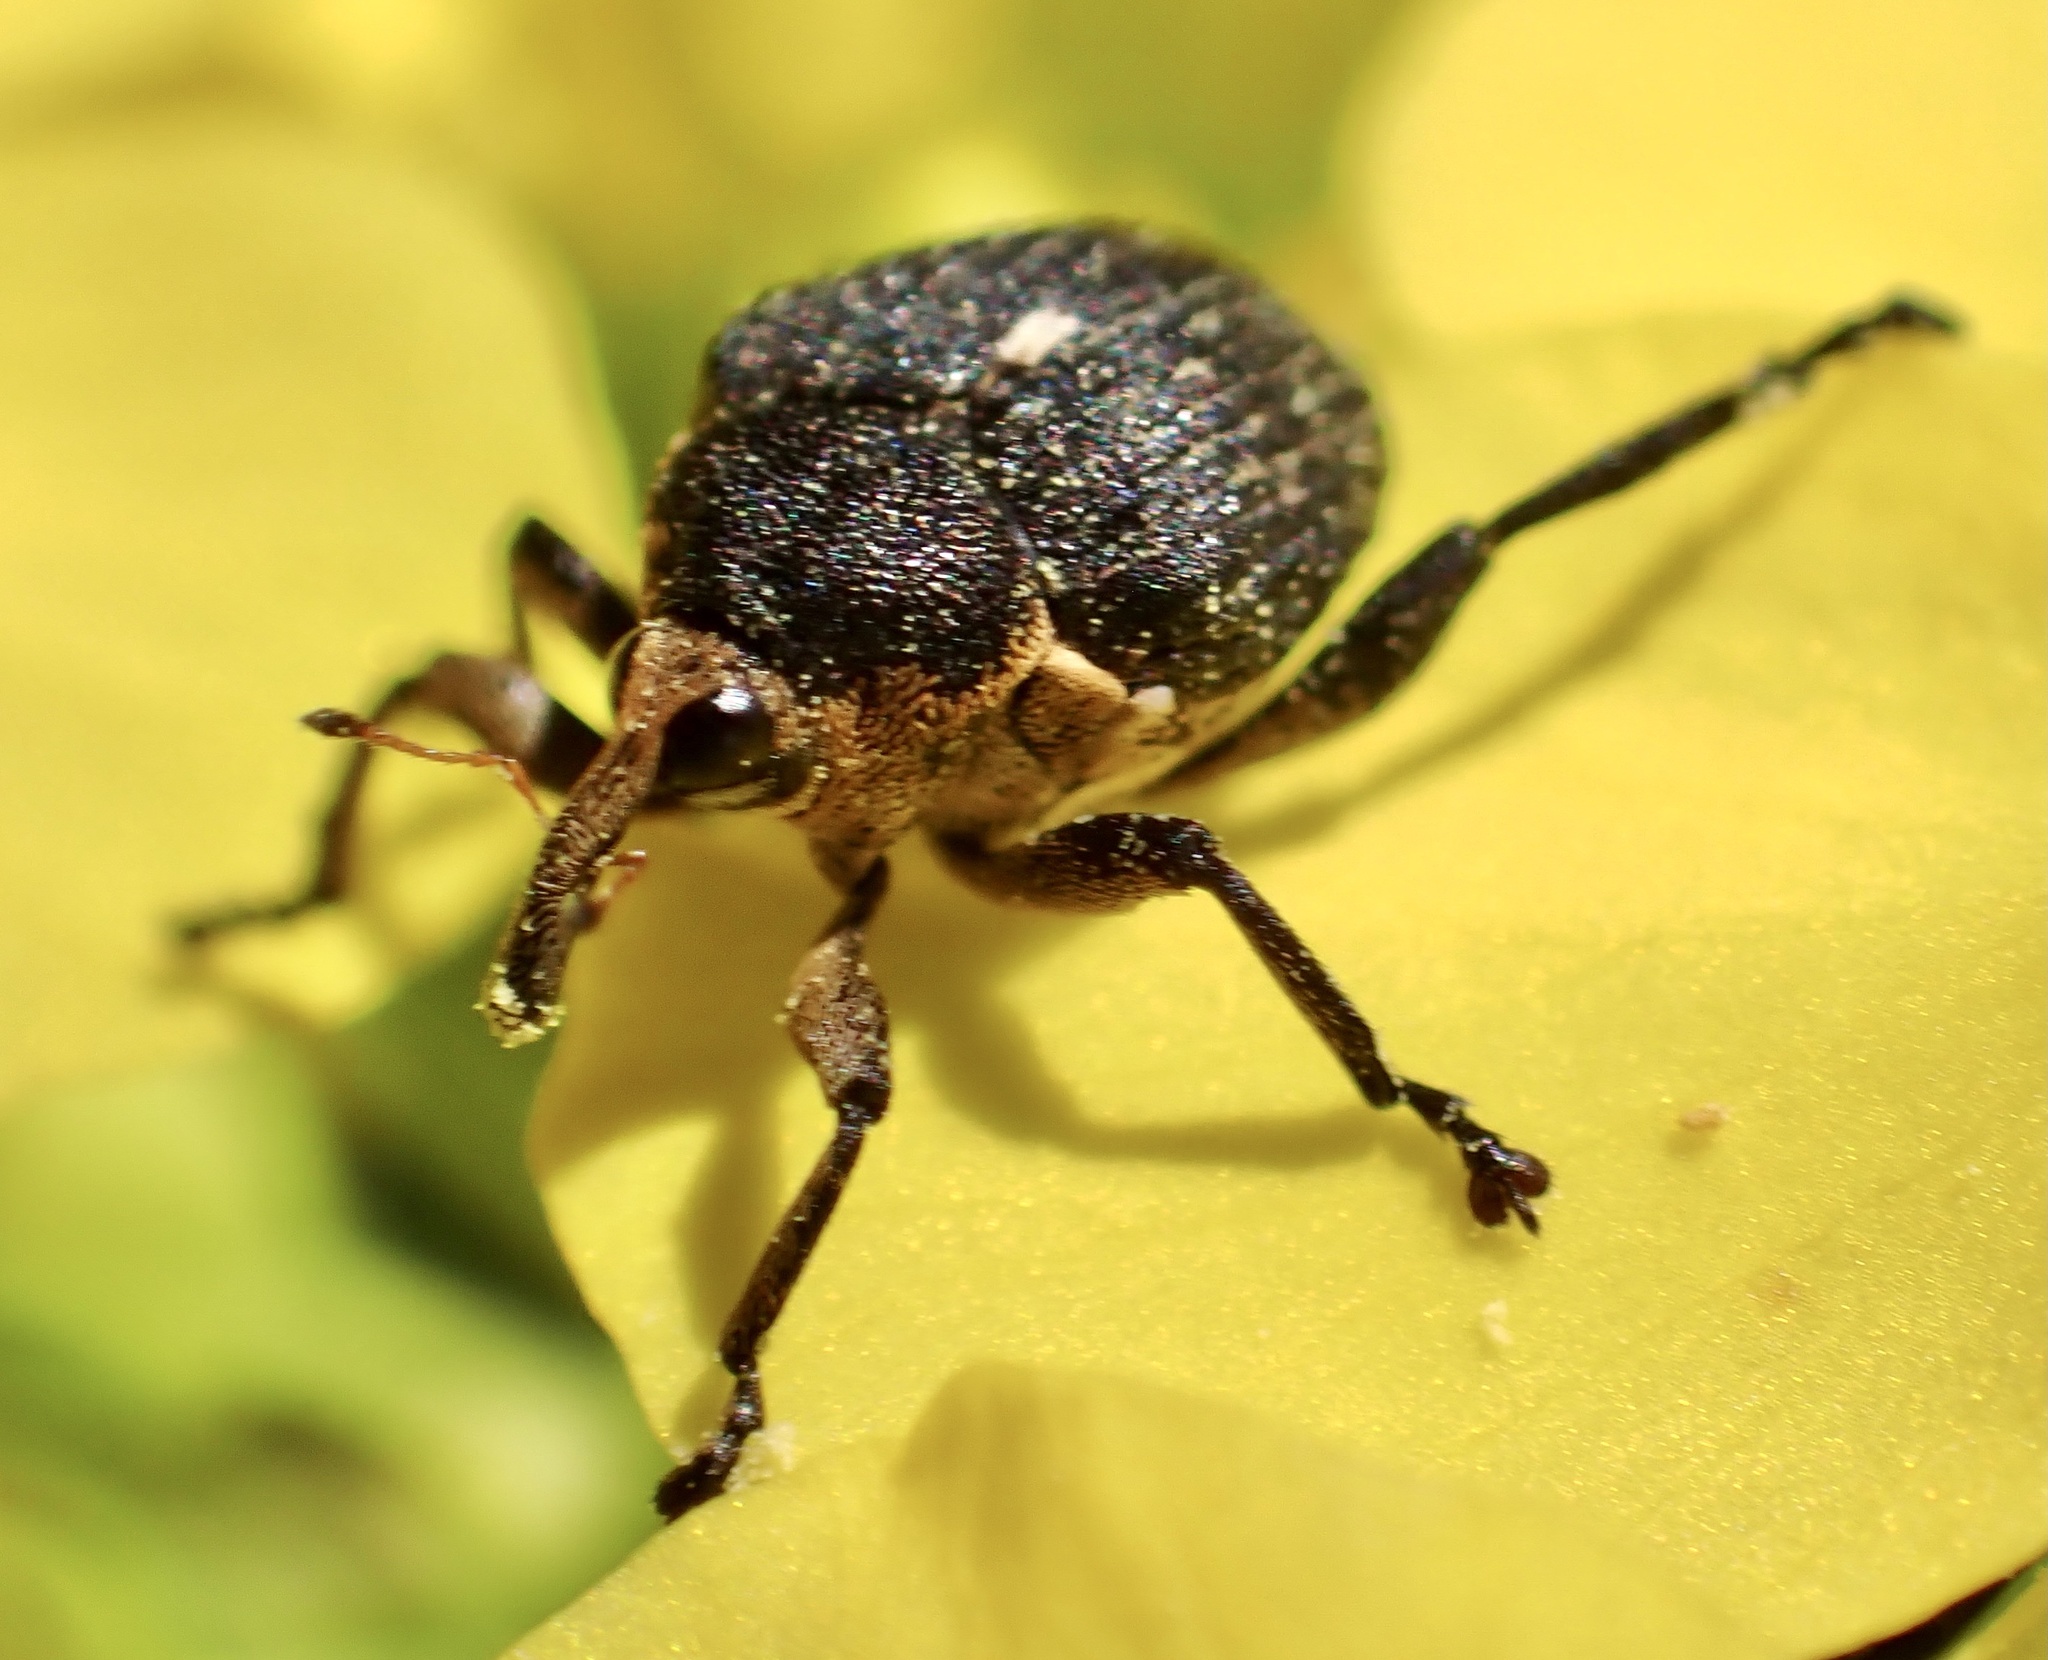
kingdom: Animalia
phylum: Arthropoda
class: Insecta
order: Coleoptera
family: Curculionidae
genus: Mononychus
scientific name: Mononychus punctumalbum
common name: Iris weevil
